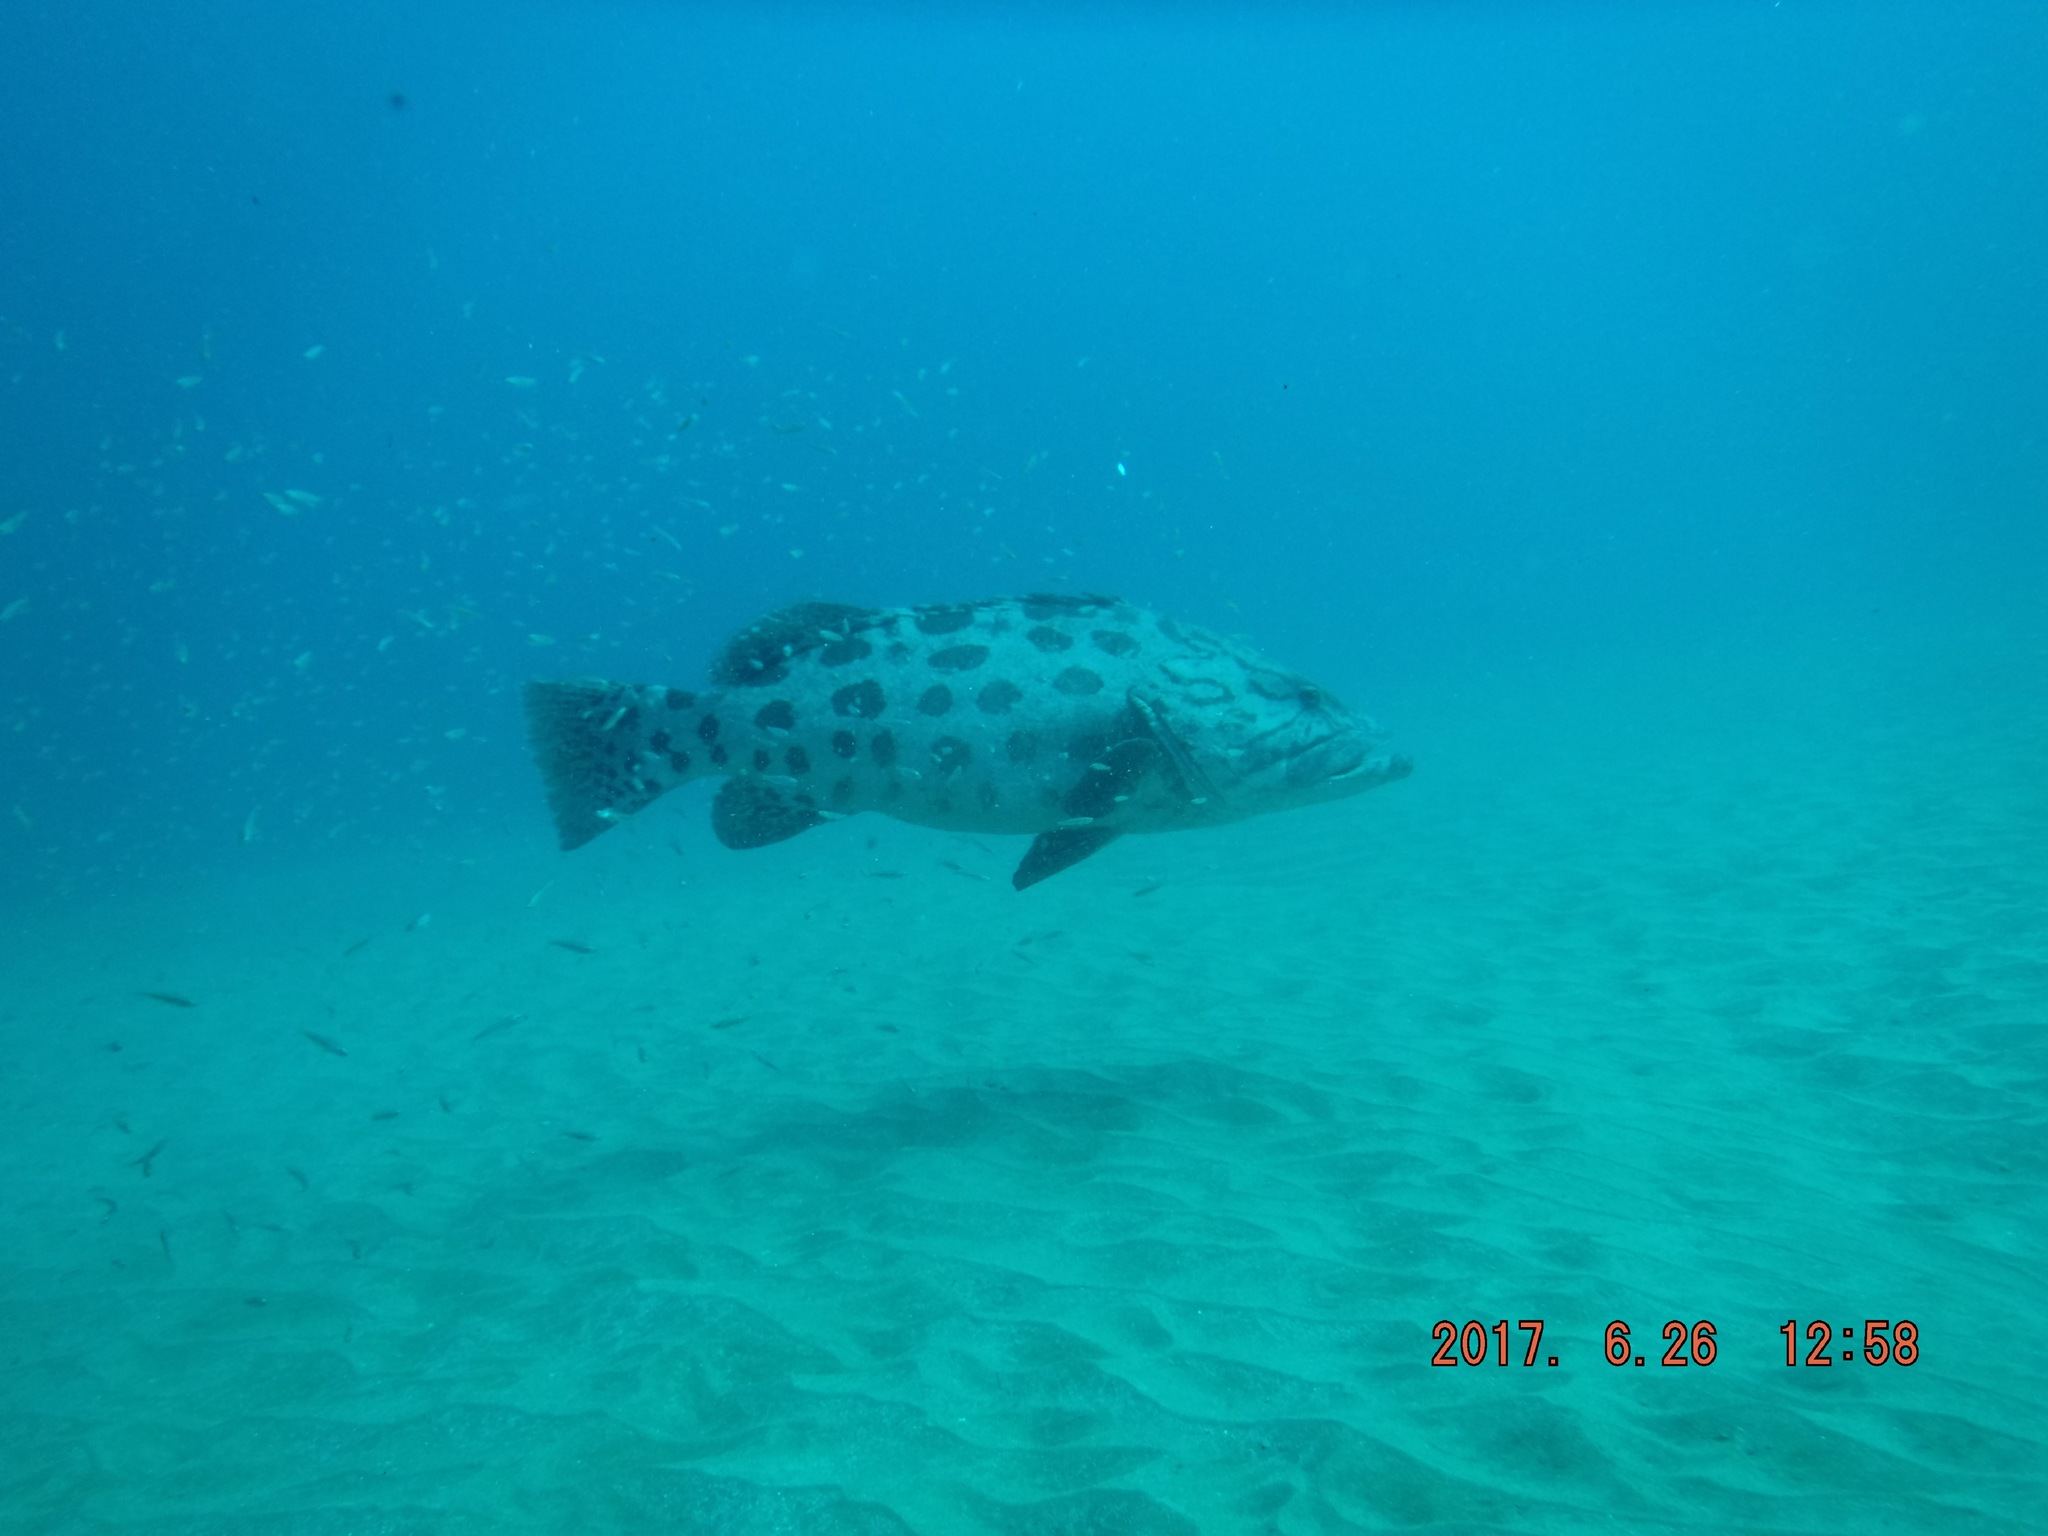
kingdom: Animalia
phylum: Chordata
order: Perciformes
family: Serranidae
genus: Epinephelus
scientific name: Epinephelus tukula
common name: Potato cod
